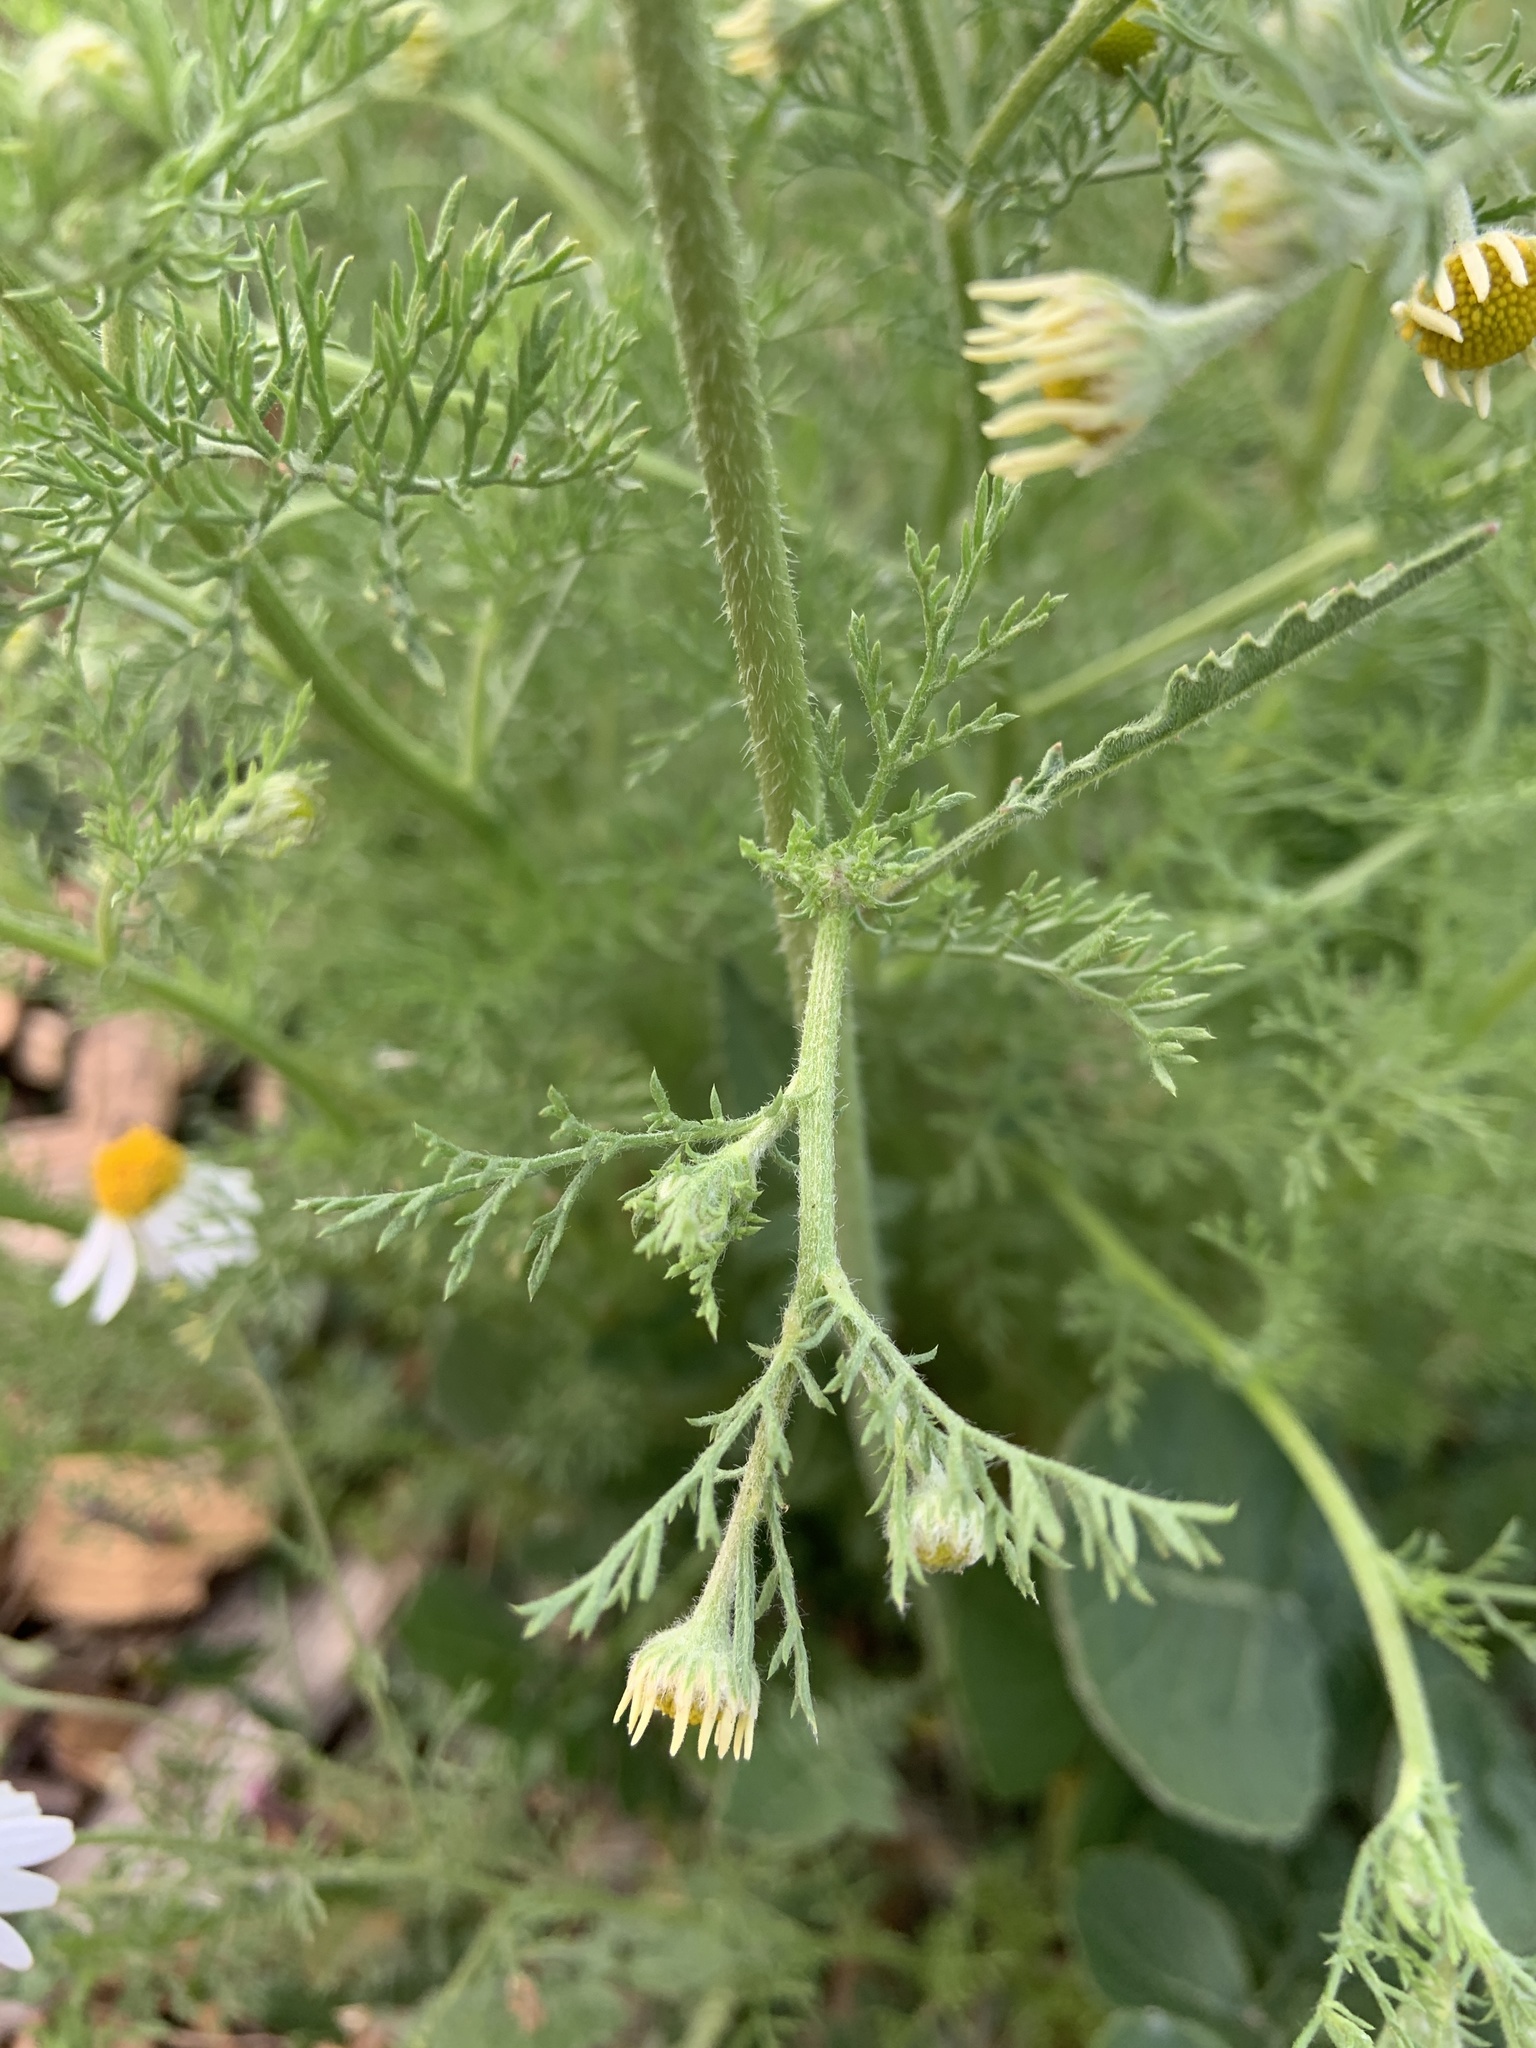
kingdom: Plantae
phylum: Tracheophyta
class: Magnoliopsida
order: Asterales
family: Asteraceae
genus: Anthemis
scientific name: Anthemis cotula
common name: Stinking chamomile
